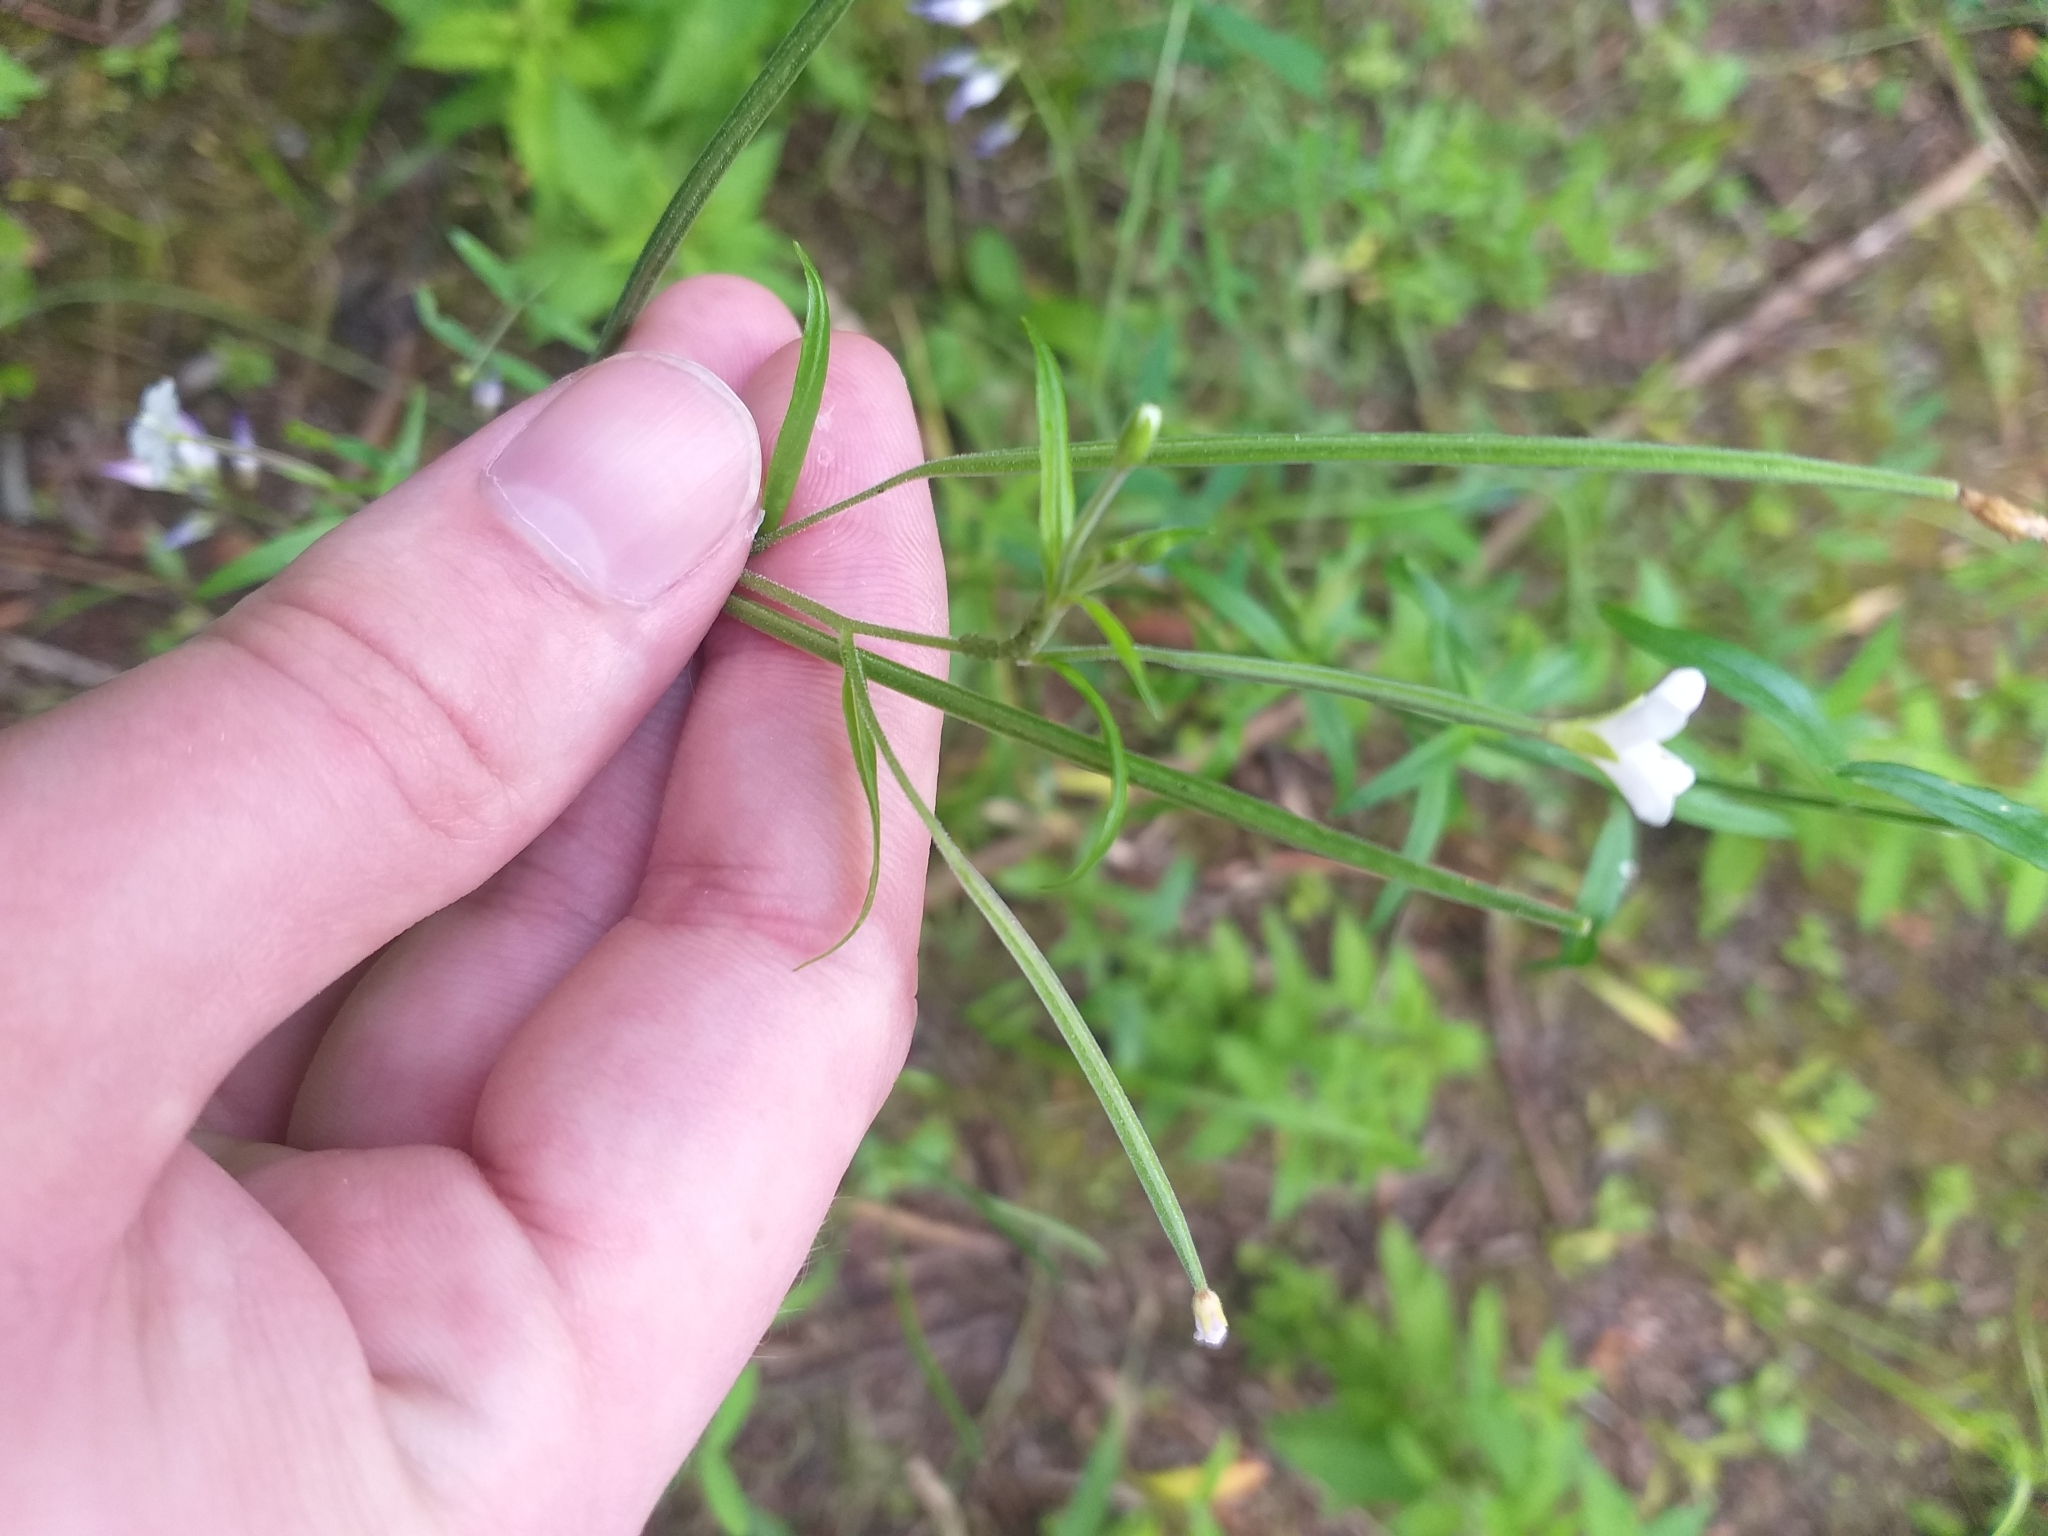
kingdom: Plantae
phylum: Tracheophyta
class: Magnoliopsida
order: Myrtales
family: Onagraceae
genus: Epilobium
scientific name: Epilobium palustre
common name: Marsh willowherb
